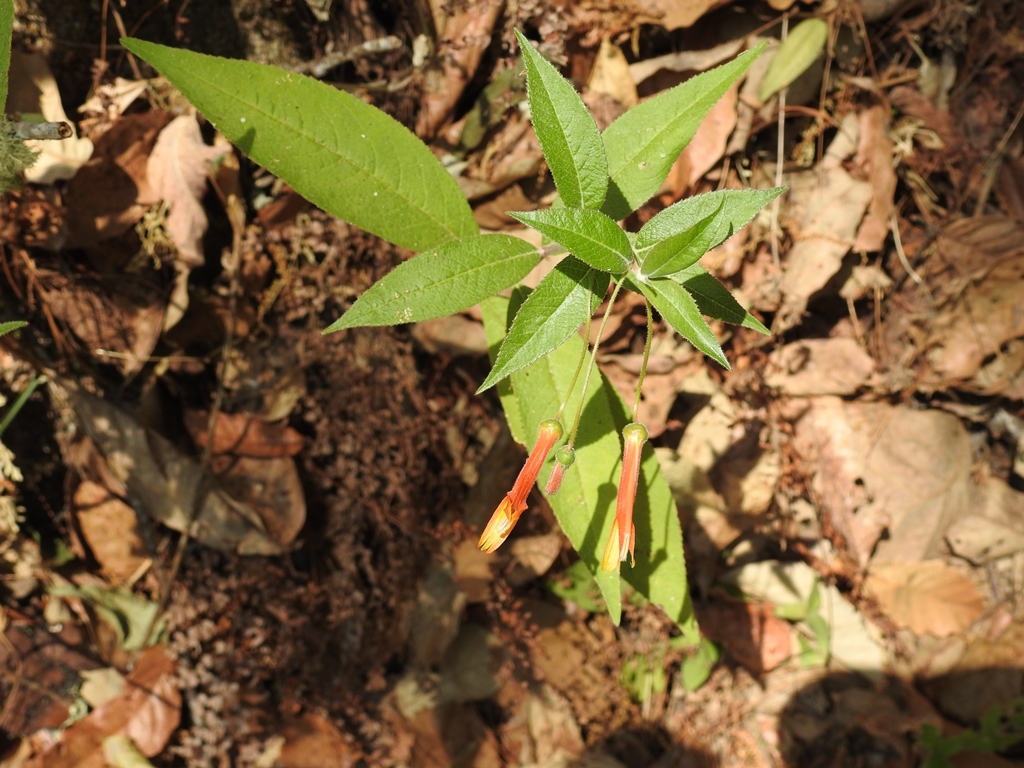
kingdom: Plantae
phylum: Tracheophyta
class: Magnoliopsida
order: Asterales
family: Campanulaceae
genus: Lobelia
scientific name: Lobelia laxiflora
